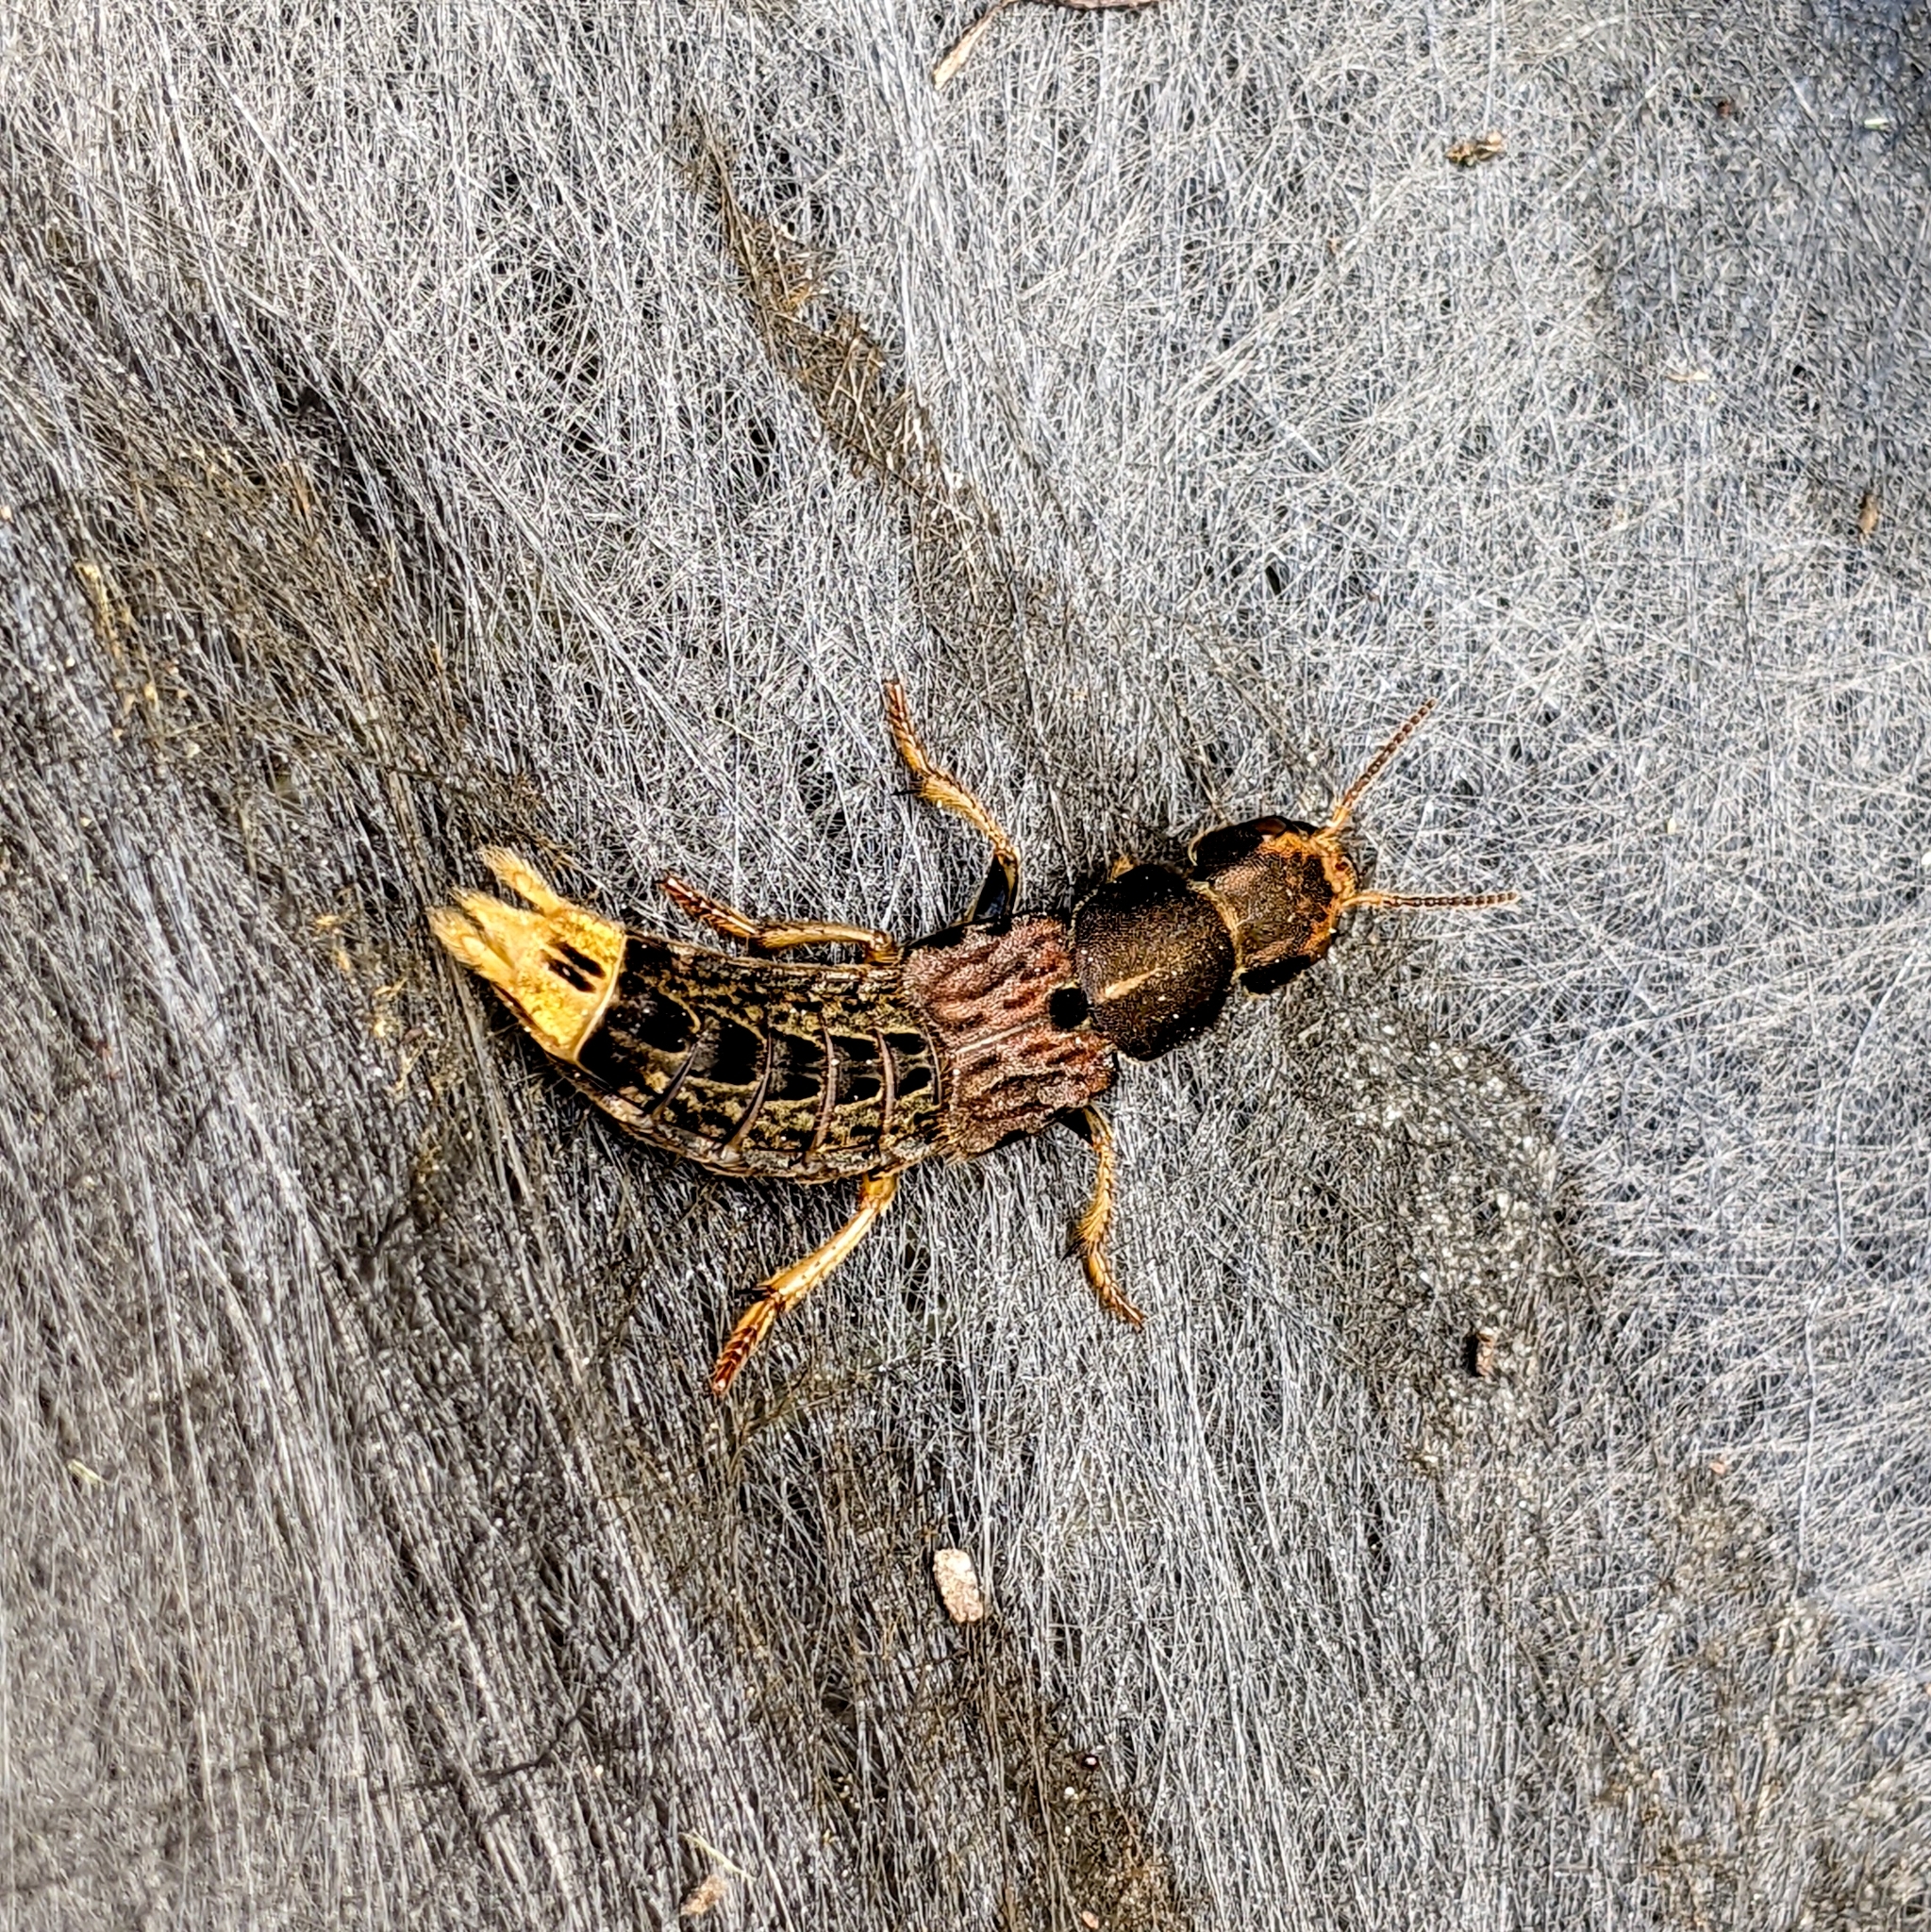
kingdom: Animalia
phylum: Arthropoda
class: Insecta
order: Coleoptera
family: Staphylinidae
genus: Platydracus
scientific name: Platydracus maculosus
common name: Brown rove beetle
